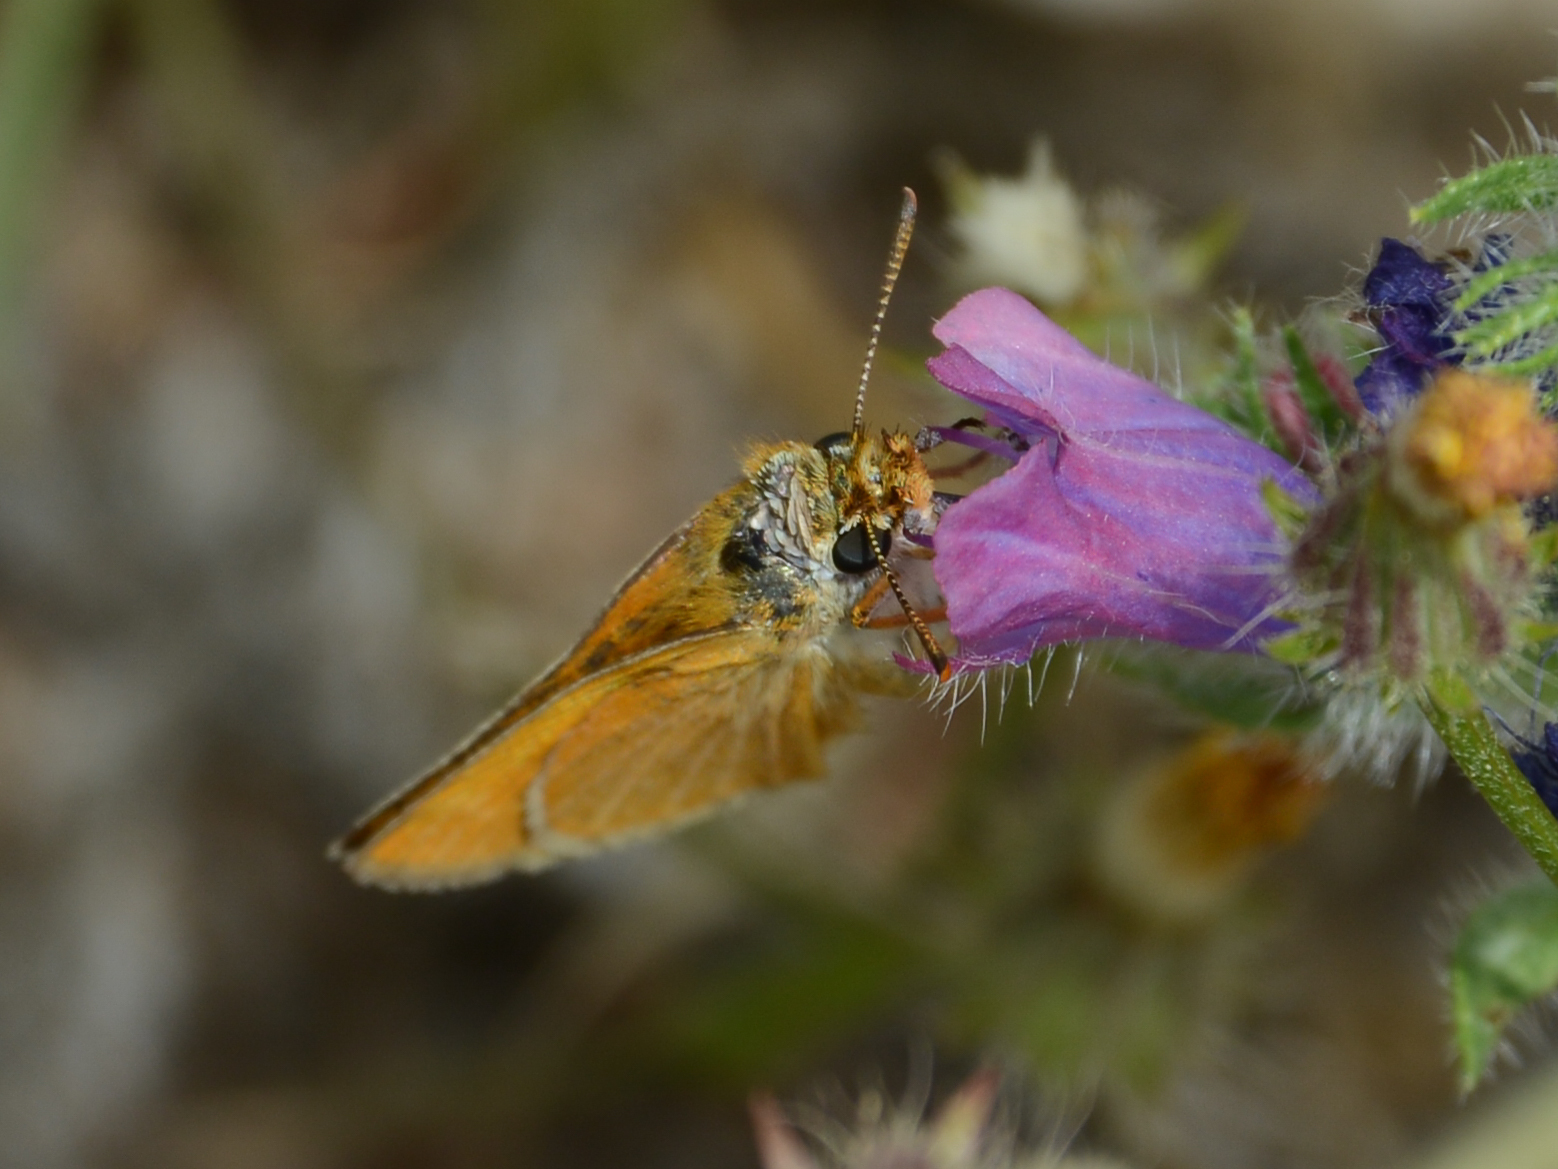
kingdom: Animalia
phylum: Arthropoda
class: Insecta
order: Lepidoptera
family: Hesperiidae
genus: Thymelicus
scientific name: Thymelicus acteon
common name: Lulworth skipper
